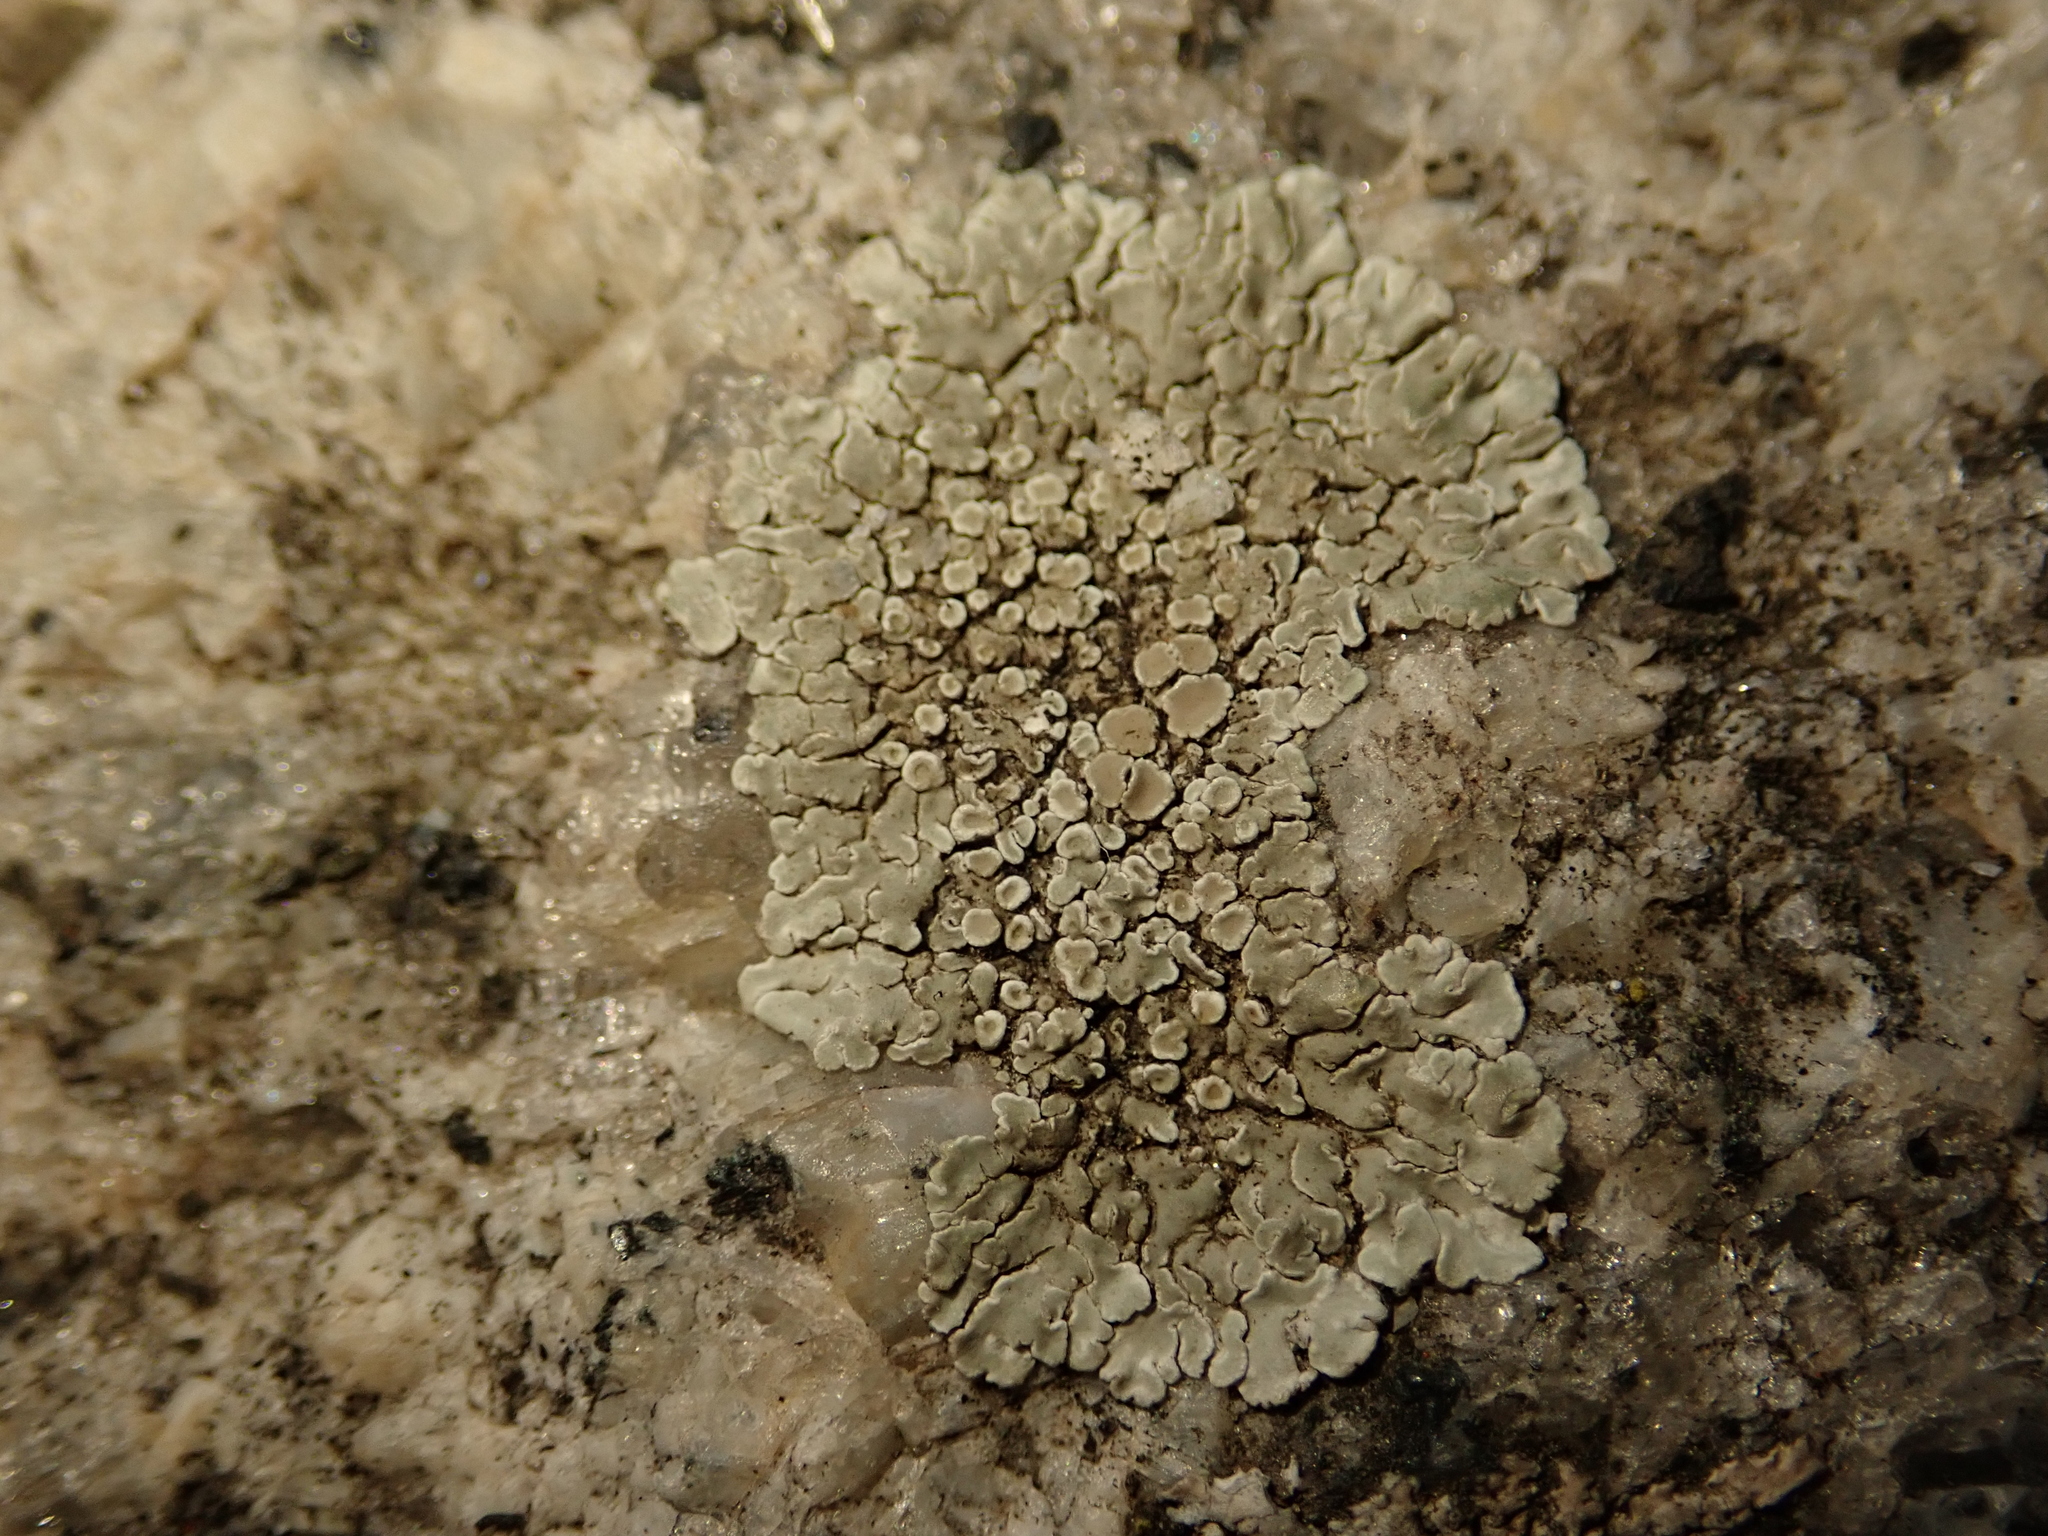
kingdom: Fungi
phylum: Ascomycota
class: Lecanoromycetes
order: Lecanorales
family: Lecanoraceae
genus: Protoparmeliopsis
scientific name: Protoparmeliopsis muralis
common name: Stonewall rim lichen
